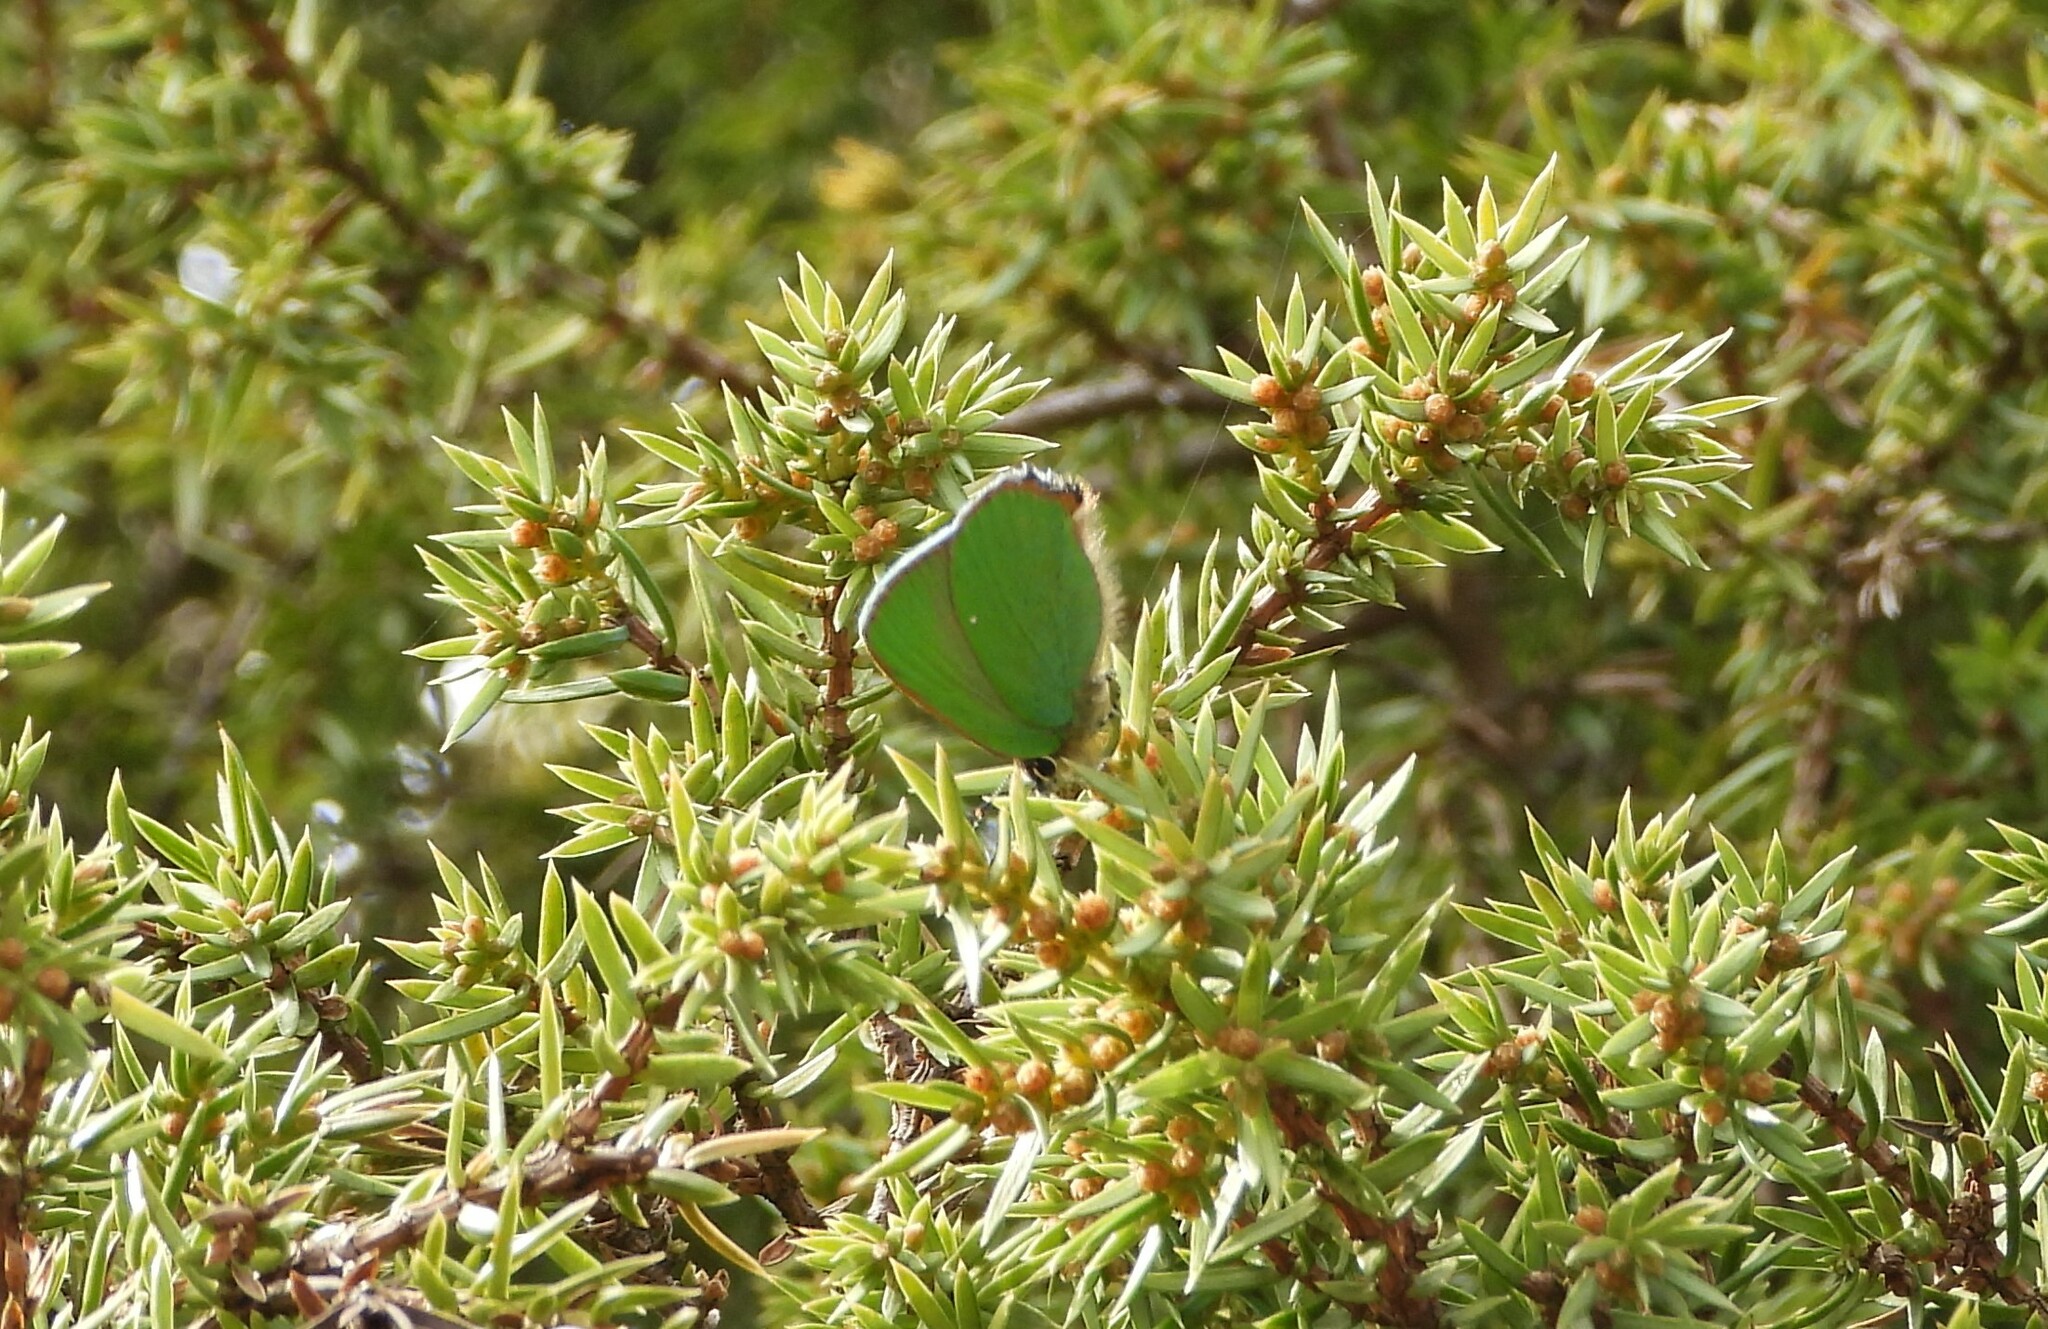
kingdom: Animalia
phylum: Arthropoda
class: Insecta
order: Lepidoptera
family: Lycaenidae
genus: Callophrys
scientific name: Callophrys rubi
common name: Green hairstreak
